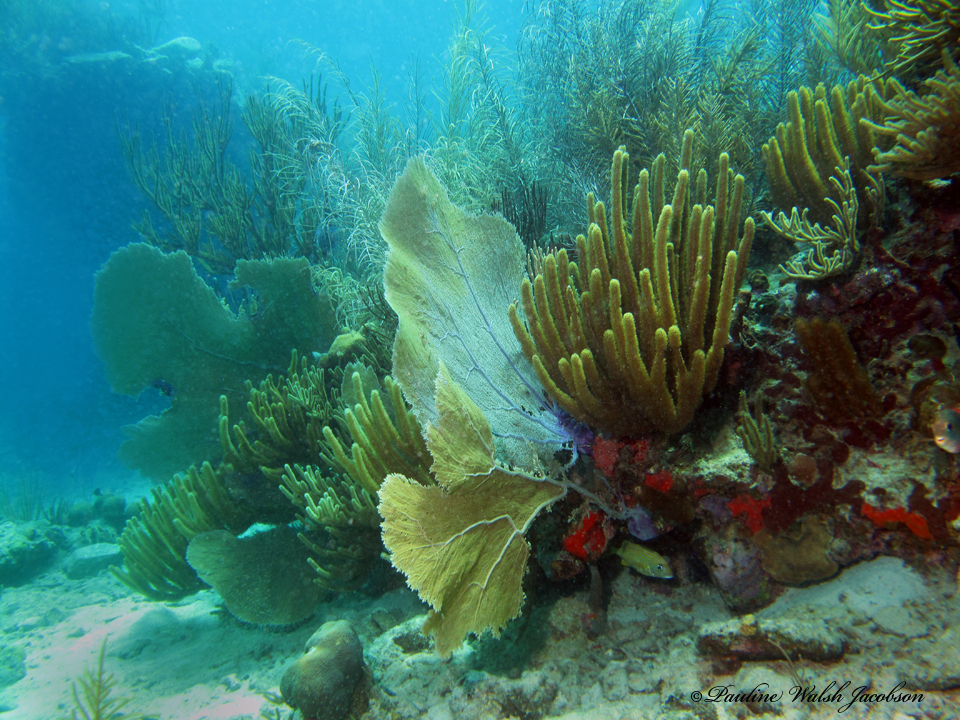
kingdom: Animalia
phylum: Cnidaria
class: Anthozoa
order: Malacalcyonacea
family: Gorgoniidae
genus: Gorgonia
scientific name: Gorgonia ventalina
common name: Common sea fan
